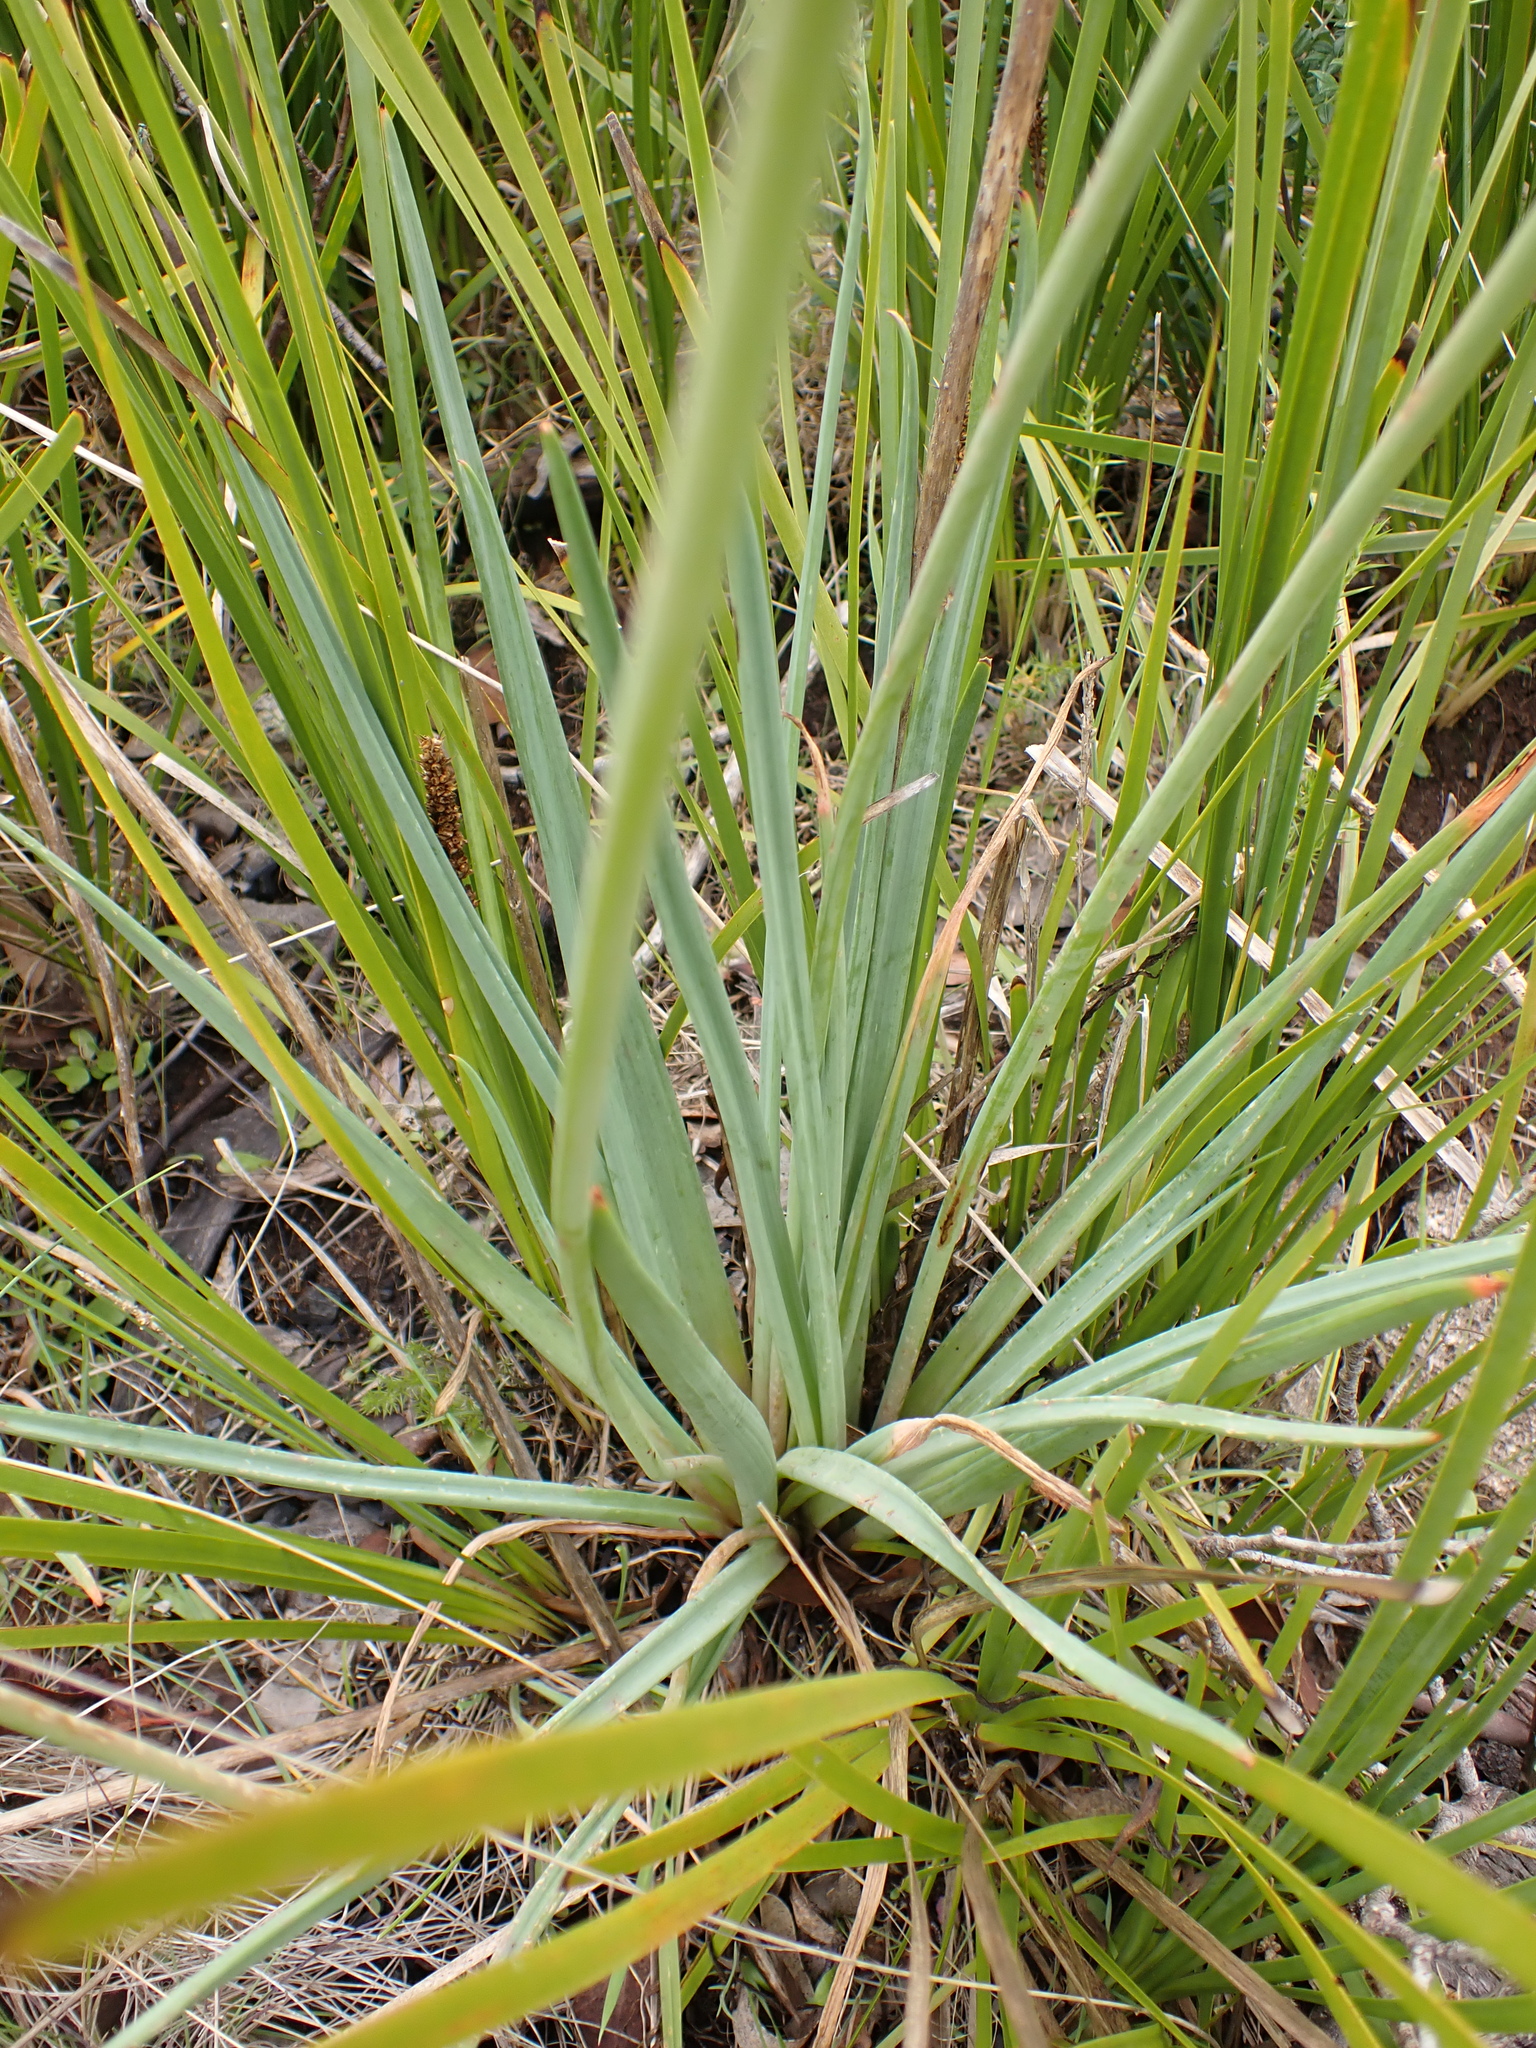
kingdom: Plantae
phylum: Tracheophyta
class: Liliopsida
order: Asparagales
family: Asphodelaceae
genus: Bulbine
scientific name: Bulbine glauca
